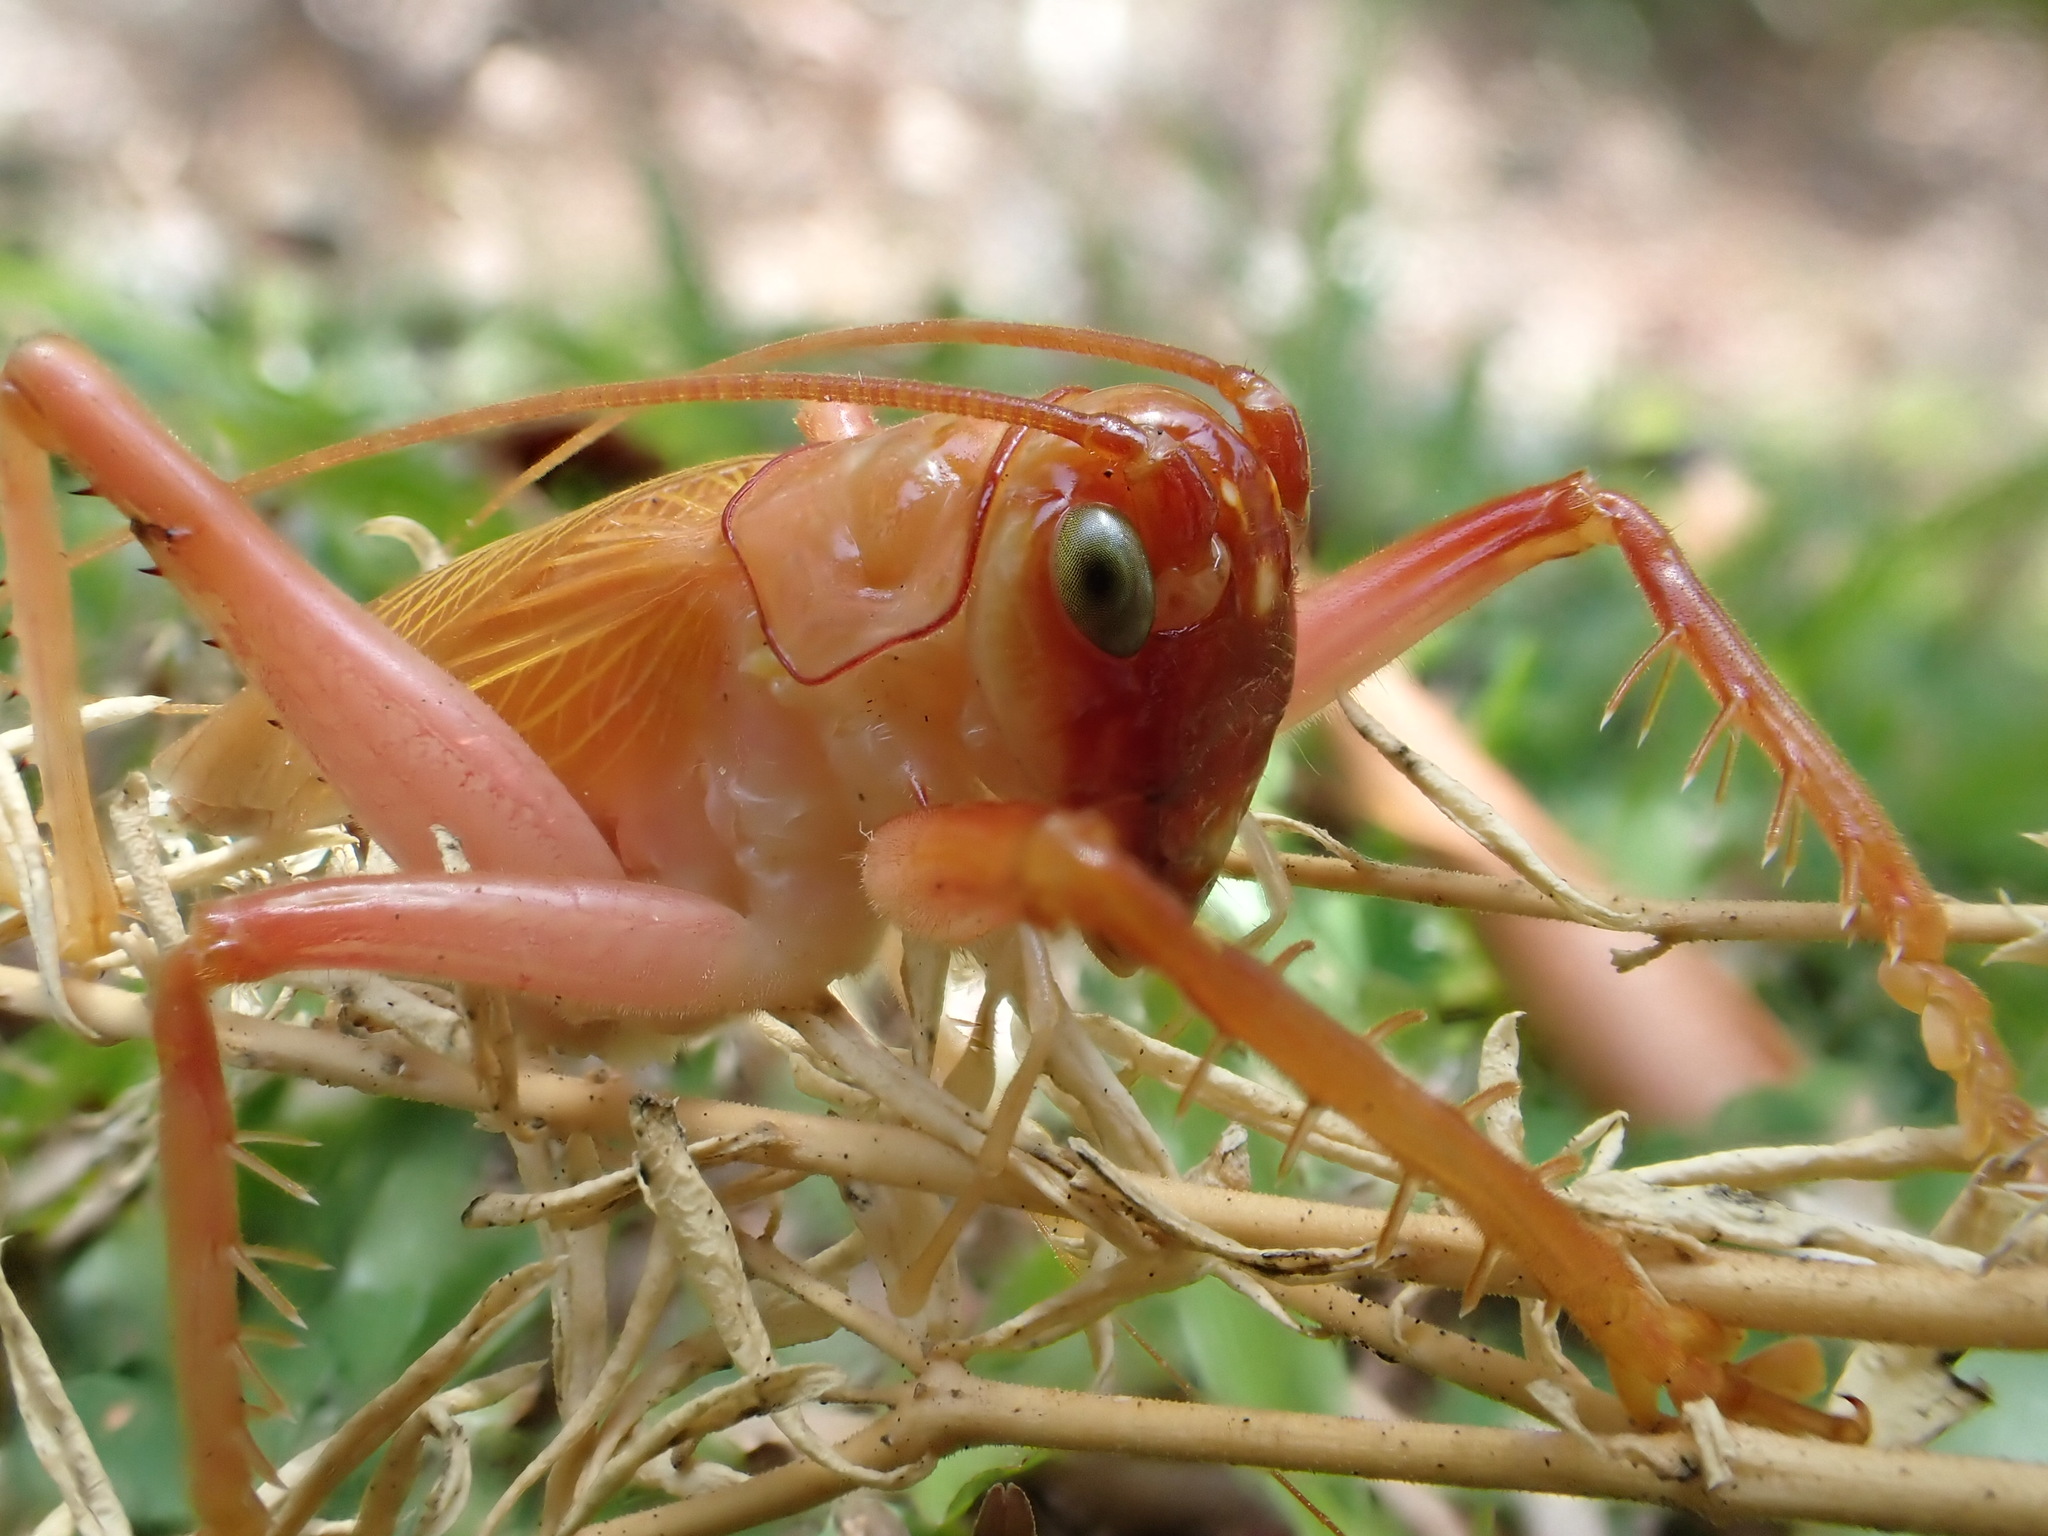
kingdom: Animalia
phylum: Arthropoda
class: Insecta
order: Orthoptera
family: Gryllacrididae
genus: Xanthogryllacris
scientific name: Xanthogryllacris punctipennis
